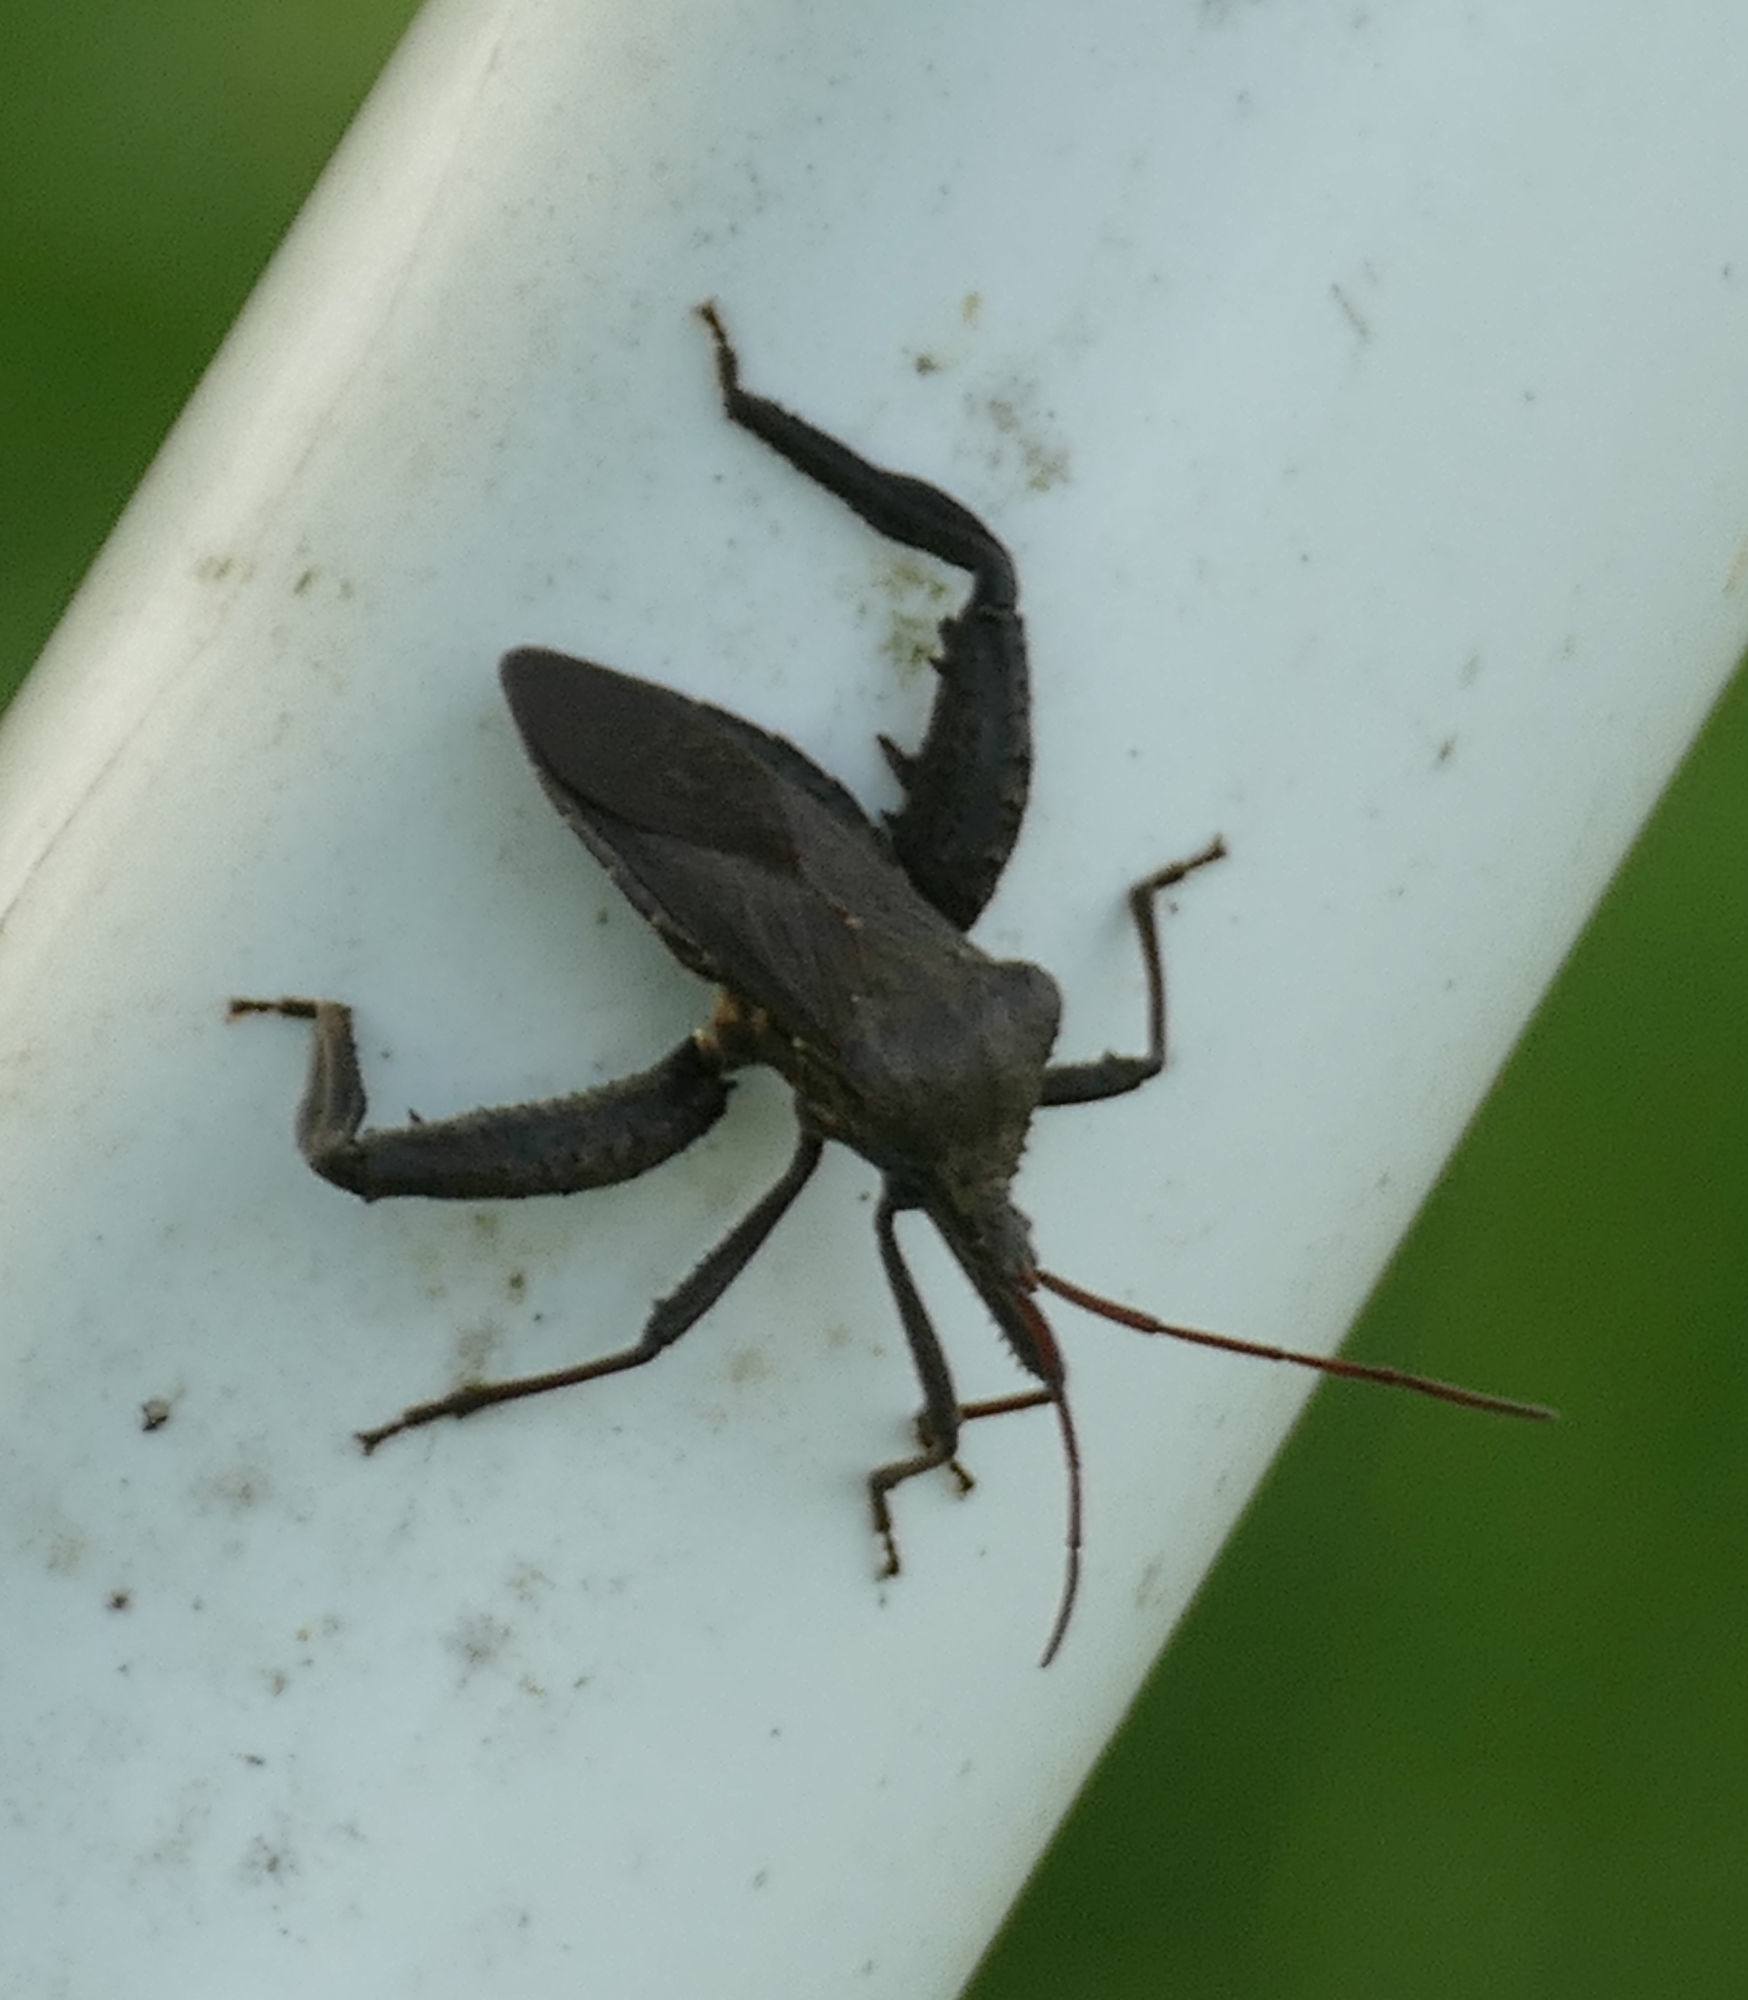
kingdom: Animalia
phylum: Arthropoda
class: Insecta
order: Hemiptera
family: Coreidae
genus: Acanthocephala
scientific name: Acanthocephala femorata
